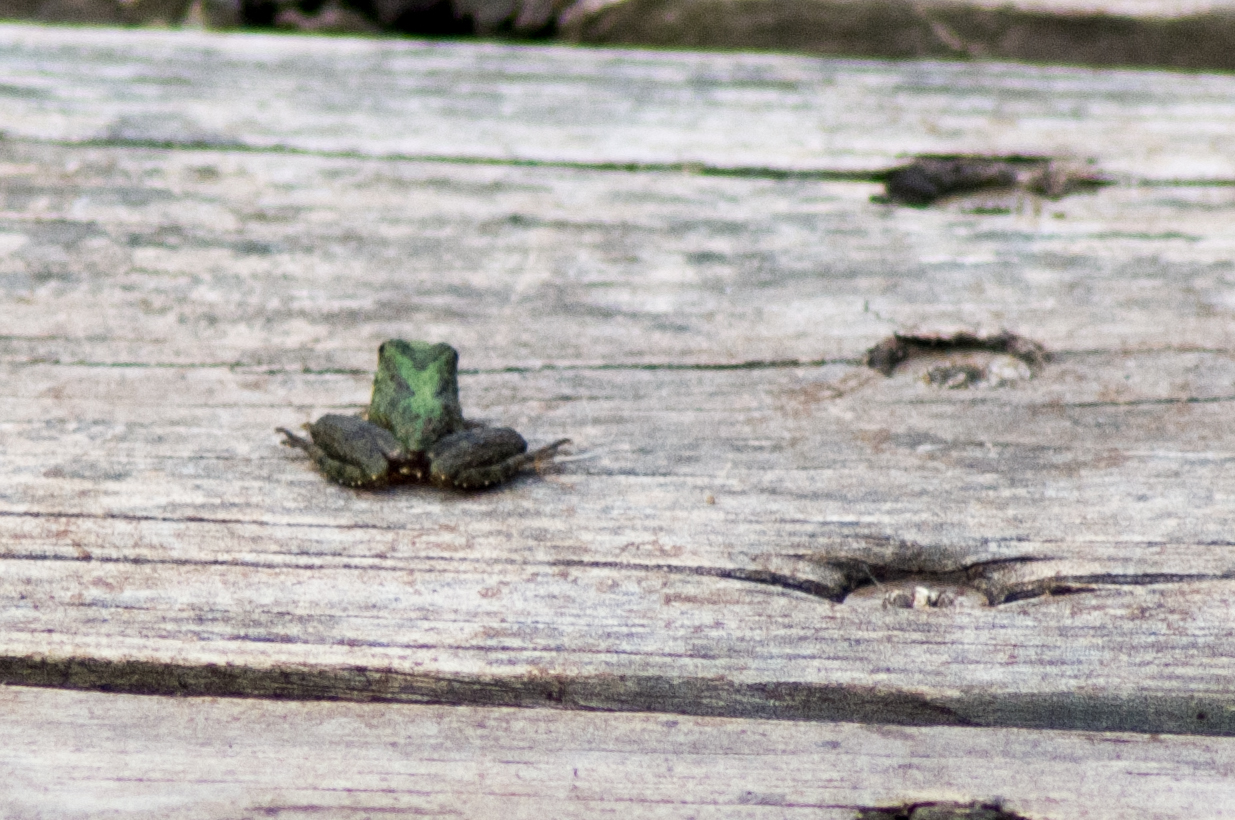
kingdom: Animalia
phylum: Chordata
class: Amphibia
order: Anura
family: Hylidae
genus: Acris
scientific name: Acris blanchardi
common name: Blanchard's cricket frog
